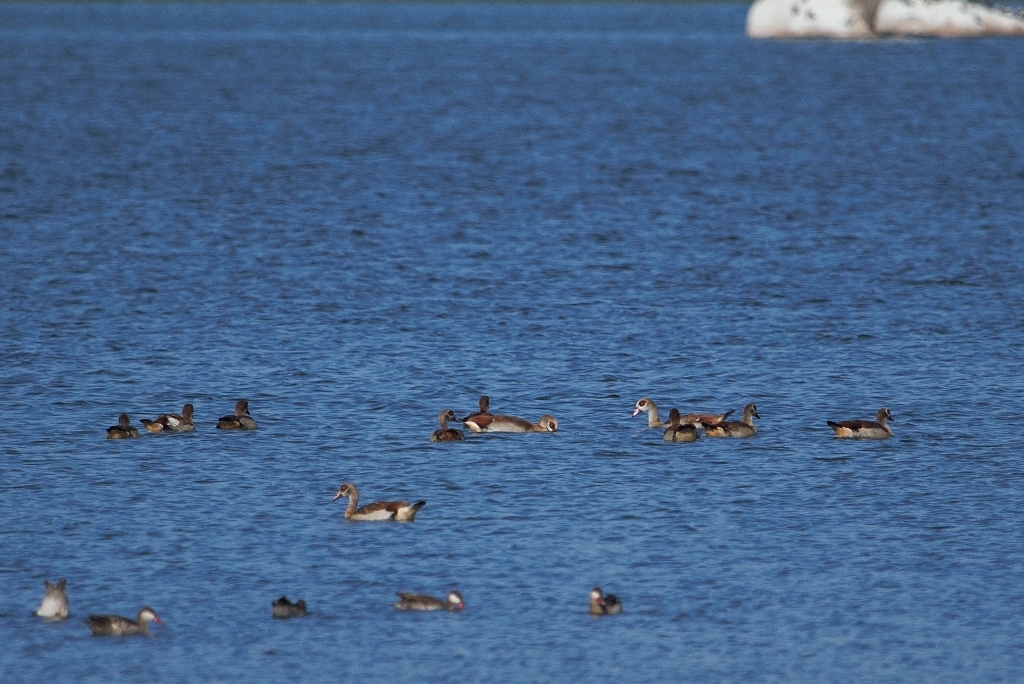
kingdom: Animalia
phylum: Chordata
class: Aves
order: Anseriformes
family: Anatidae
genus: Alopochen
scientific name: Alopochen aegyptiaca
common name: Egyptian goose
